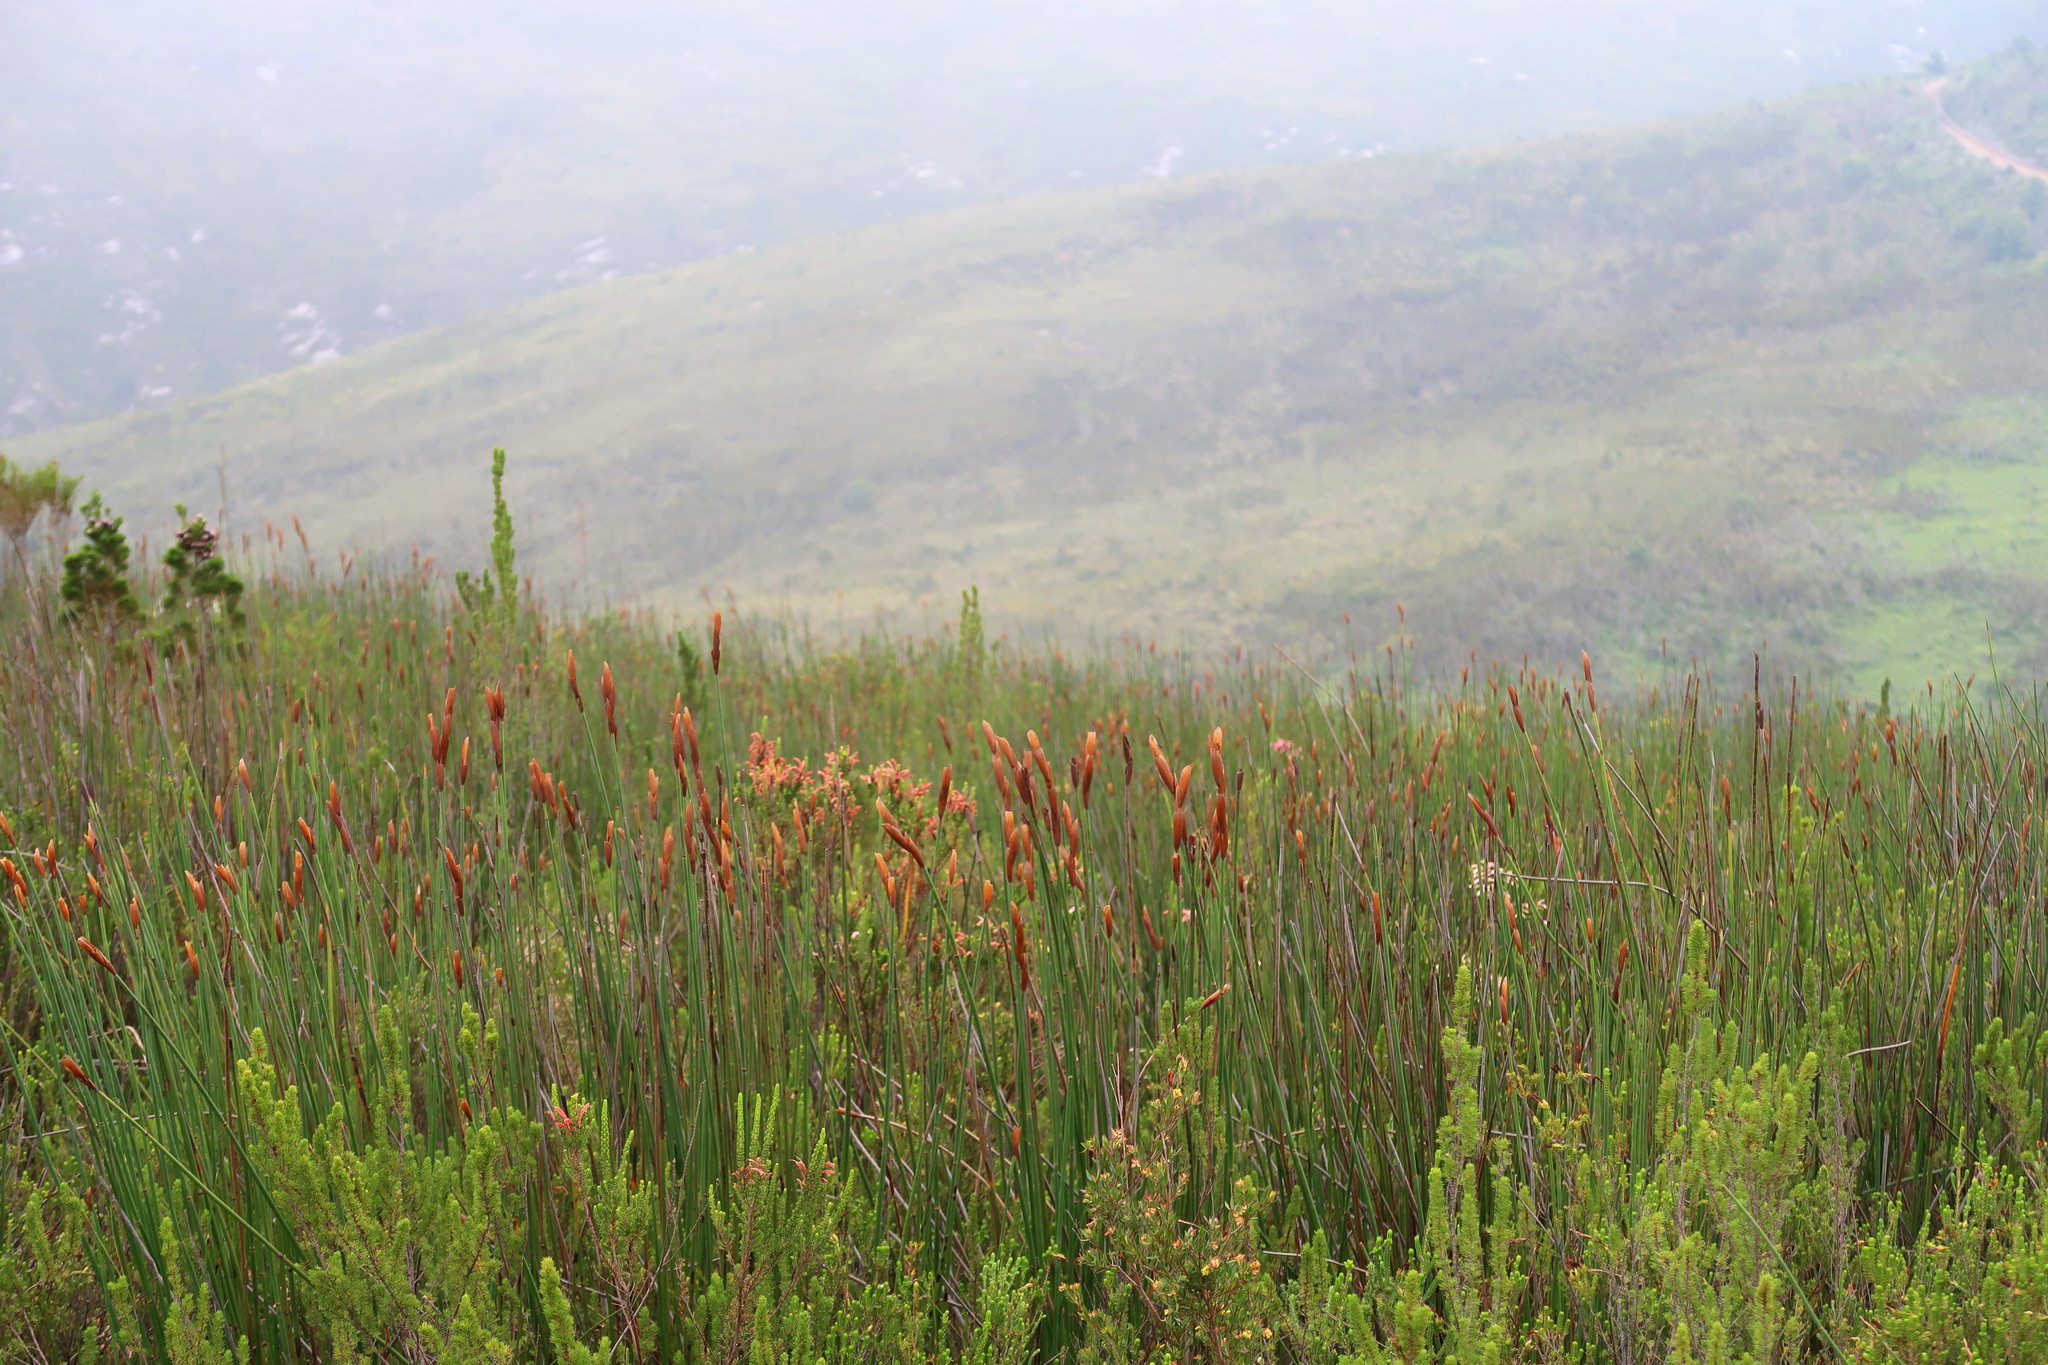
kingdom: Plantae
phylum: Tracheophyta
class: Liliopsida
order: Poales
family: Restionaceae
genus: Elegia
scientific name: Elegia thyrsoidea
